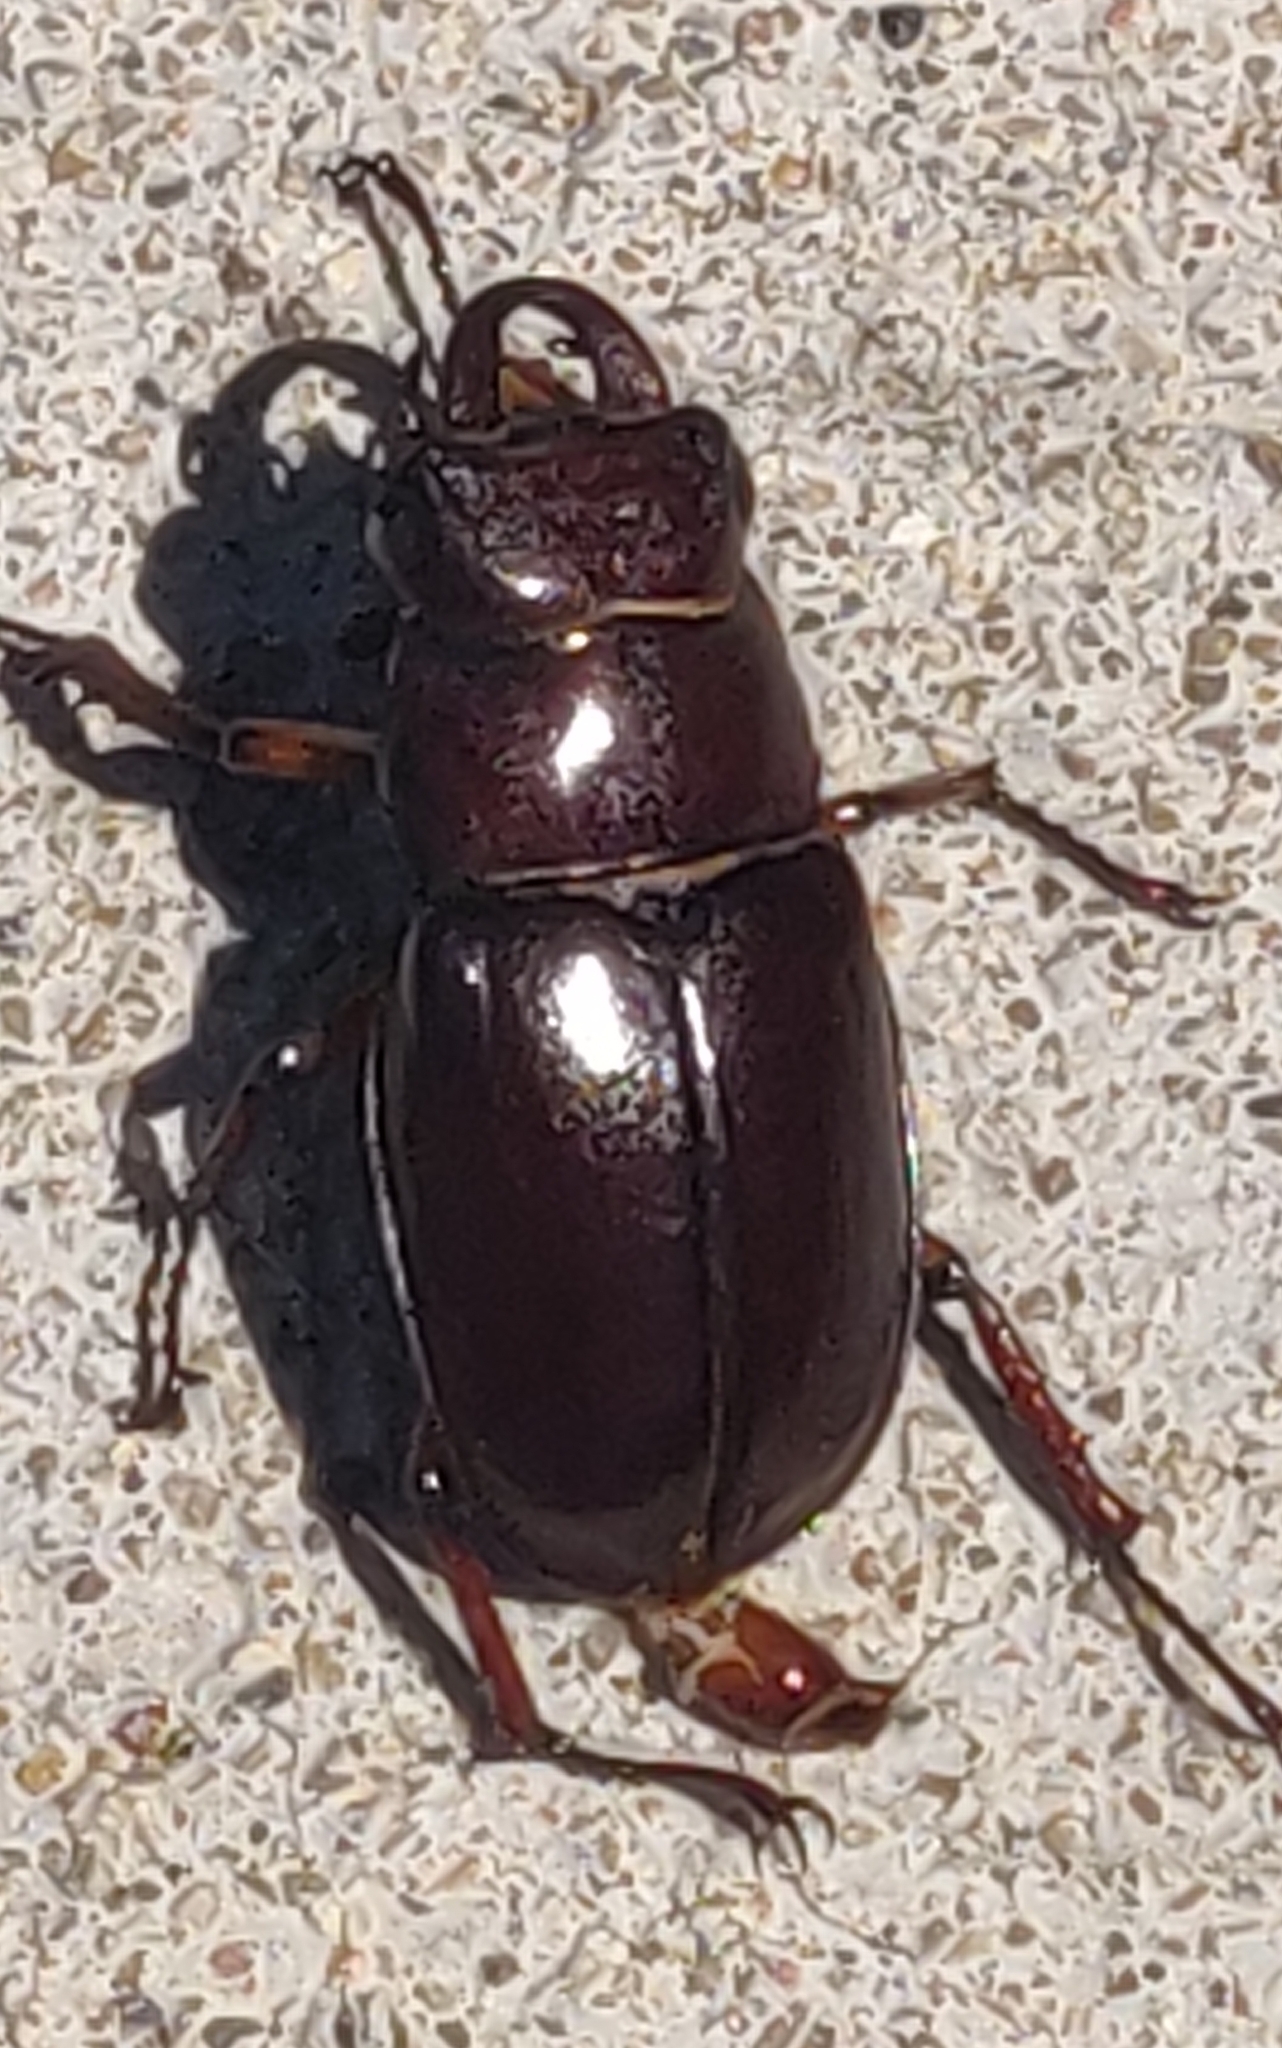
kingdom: Animalia
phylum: Arthropoda
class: Insecta
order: Coleoptera
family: Lucanidae
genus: Lucanus
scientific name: Lucanus capreolus
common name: Stag beetle
